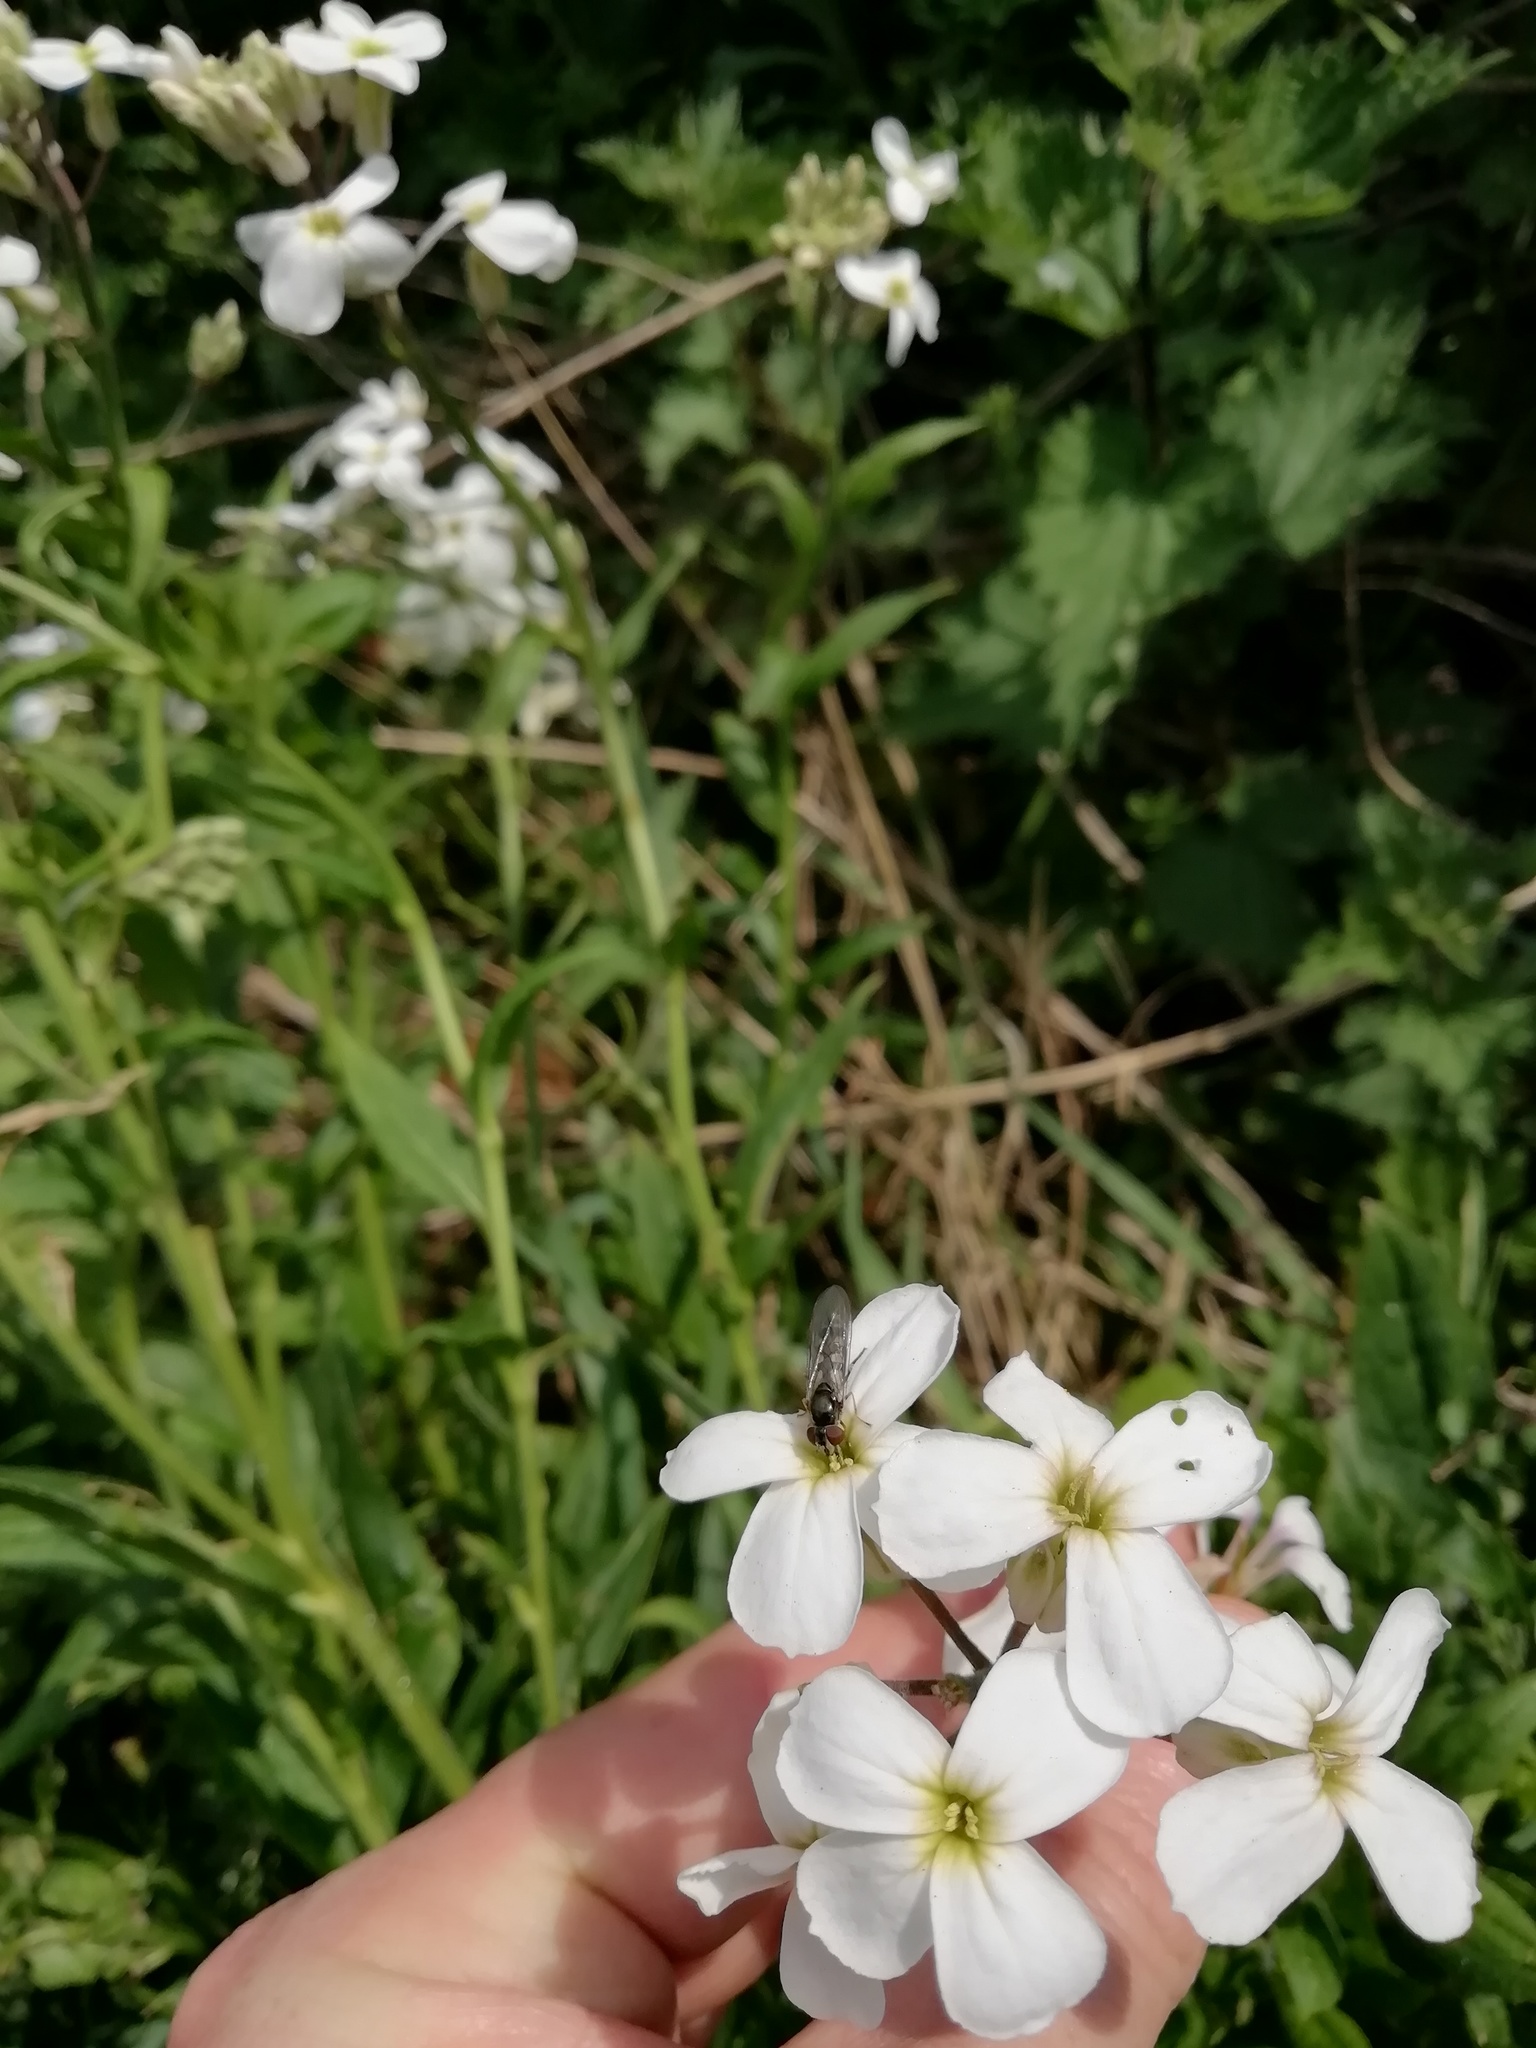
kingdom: Animalia
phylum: Arthropoda
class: Insecta
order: Diptera
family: Syrphidae
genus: Platycheirus
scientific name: Platycheirus albimanus
